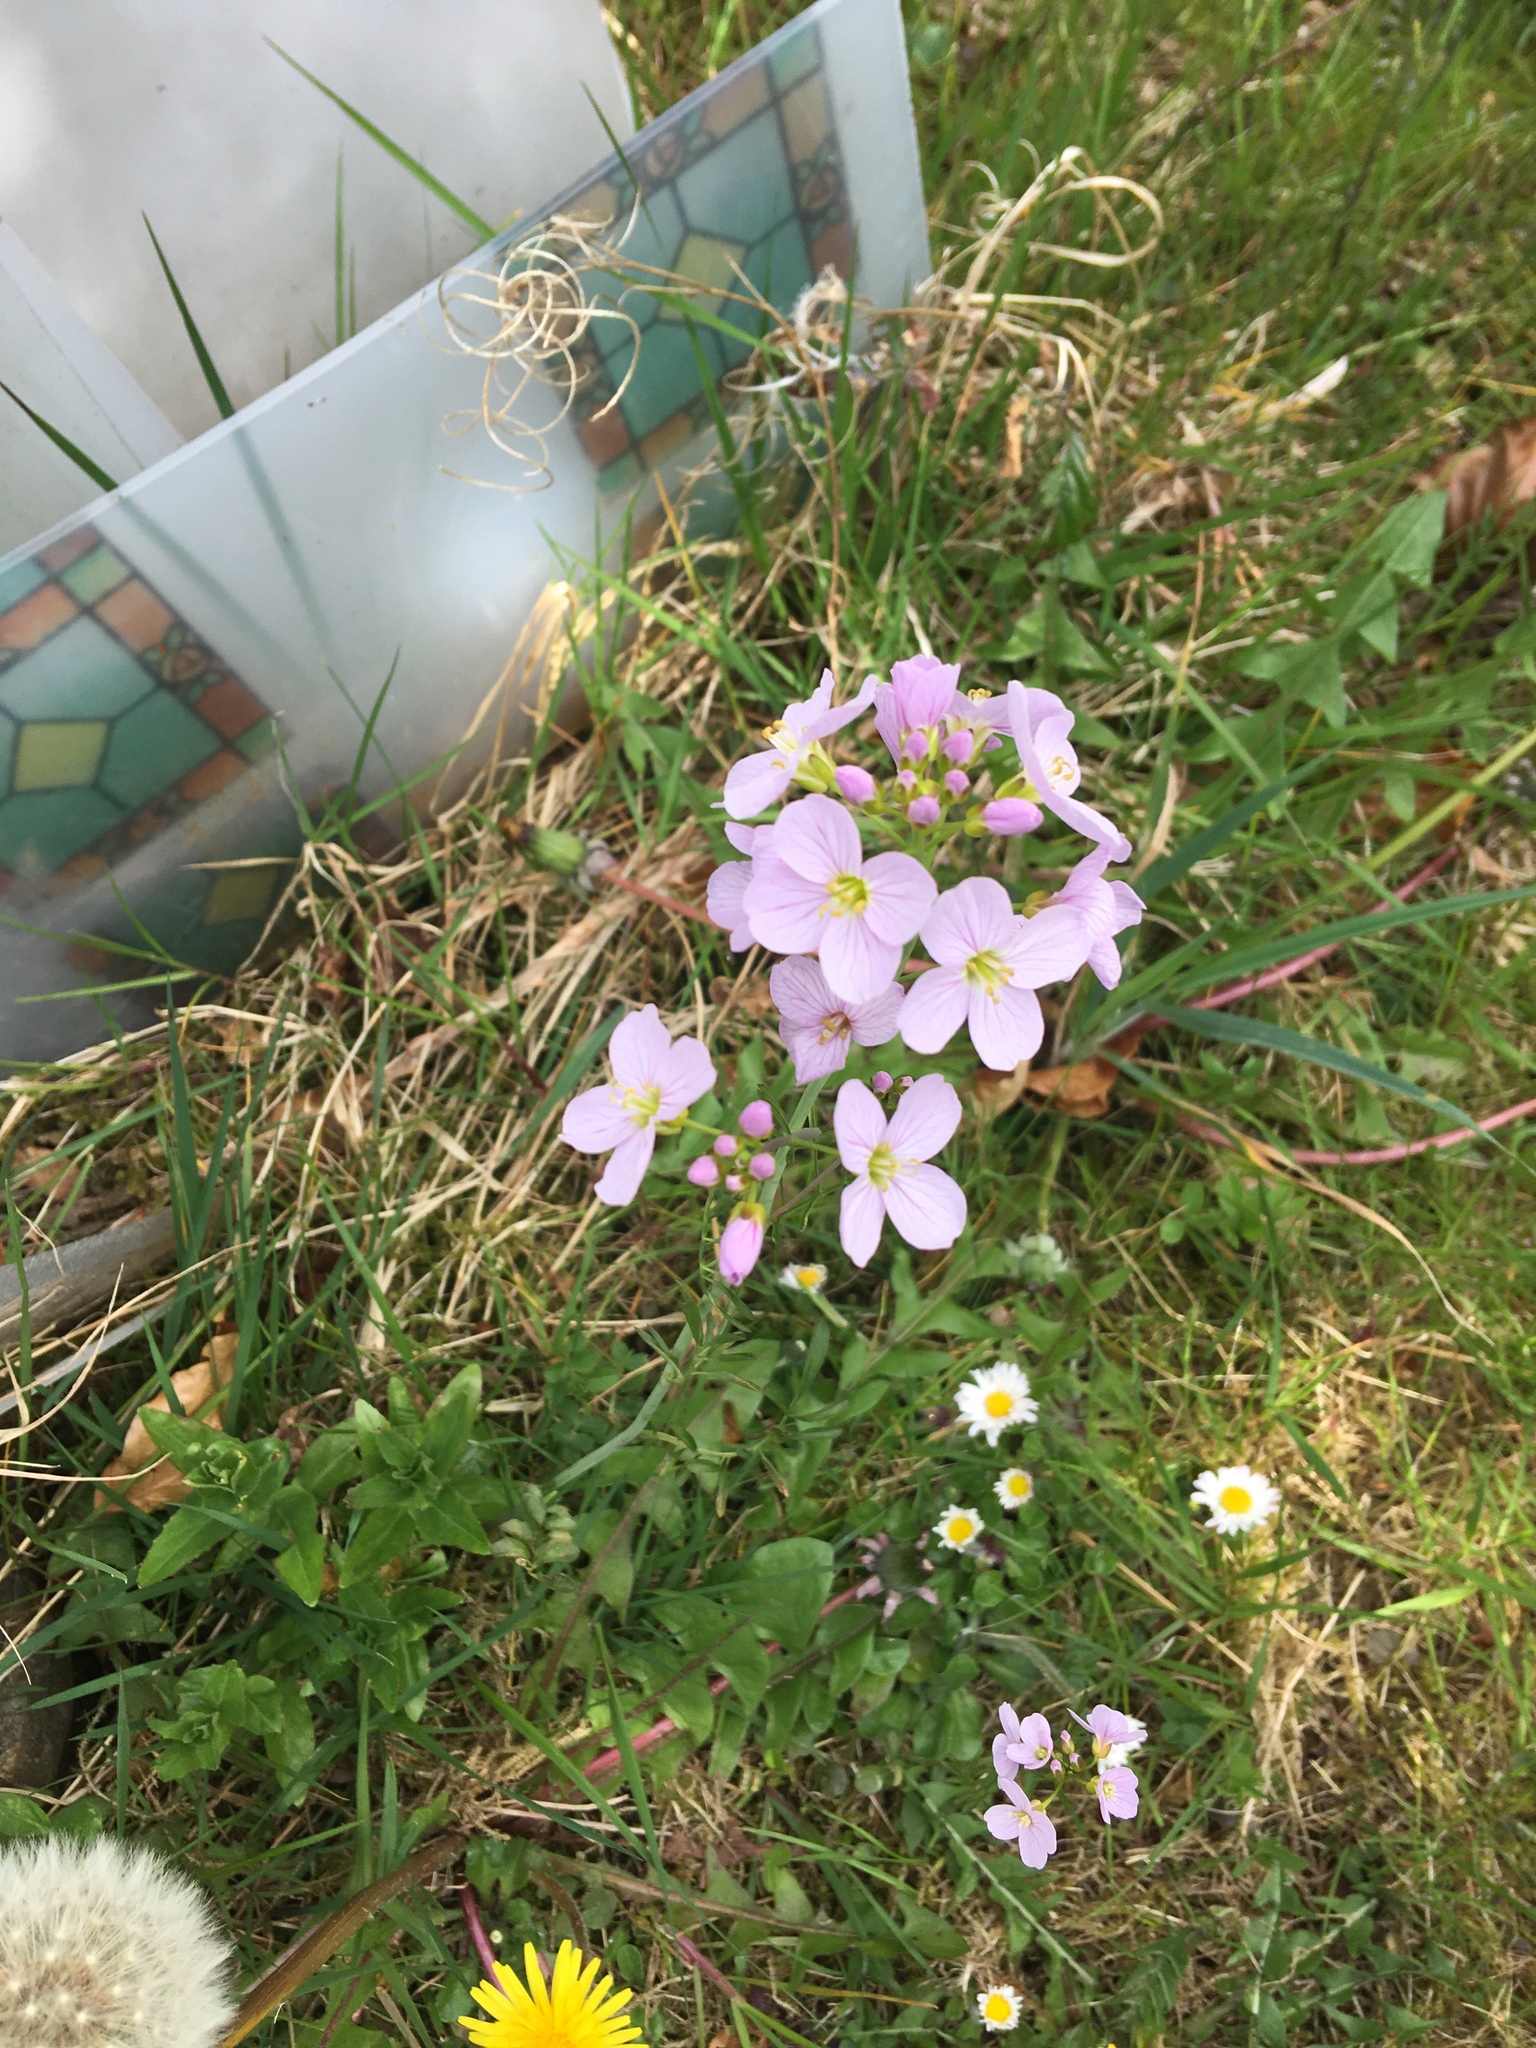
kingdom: Plantae
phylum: Tracheophyta
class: Magnoliopsida
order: Brassicales
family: Brassicaceae
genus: Cardamine
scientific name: Cardamine pratensis
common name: Cuckoo flower
